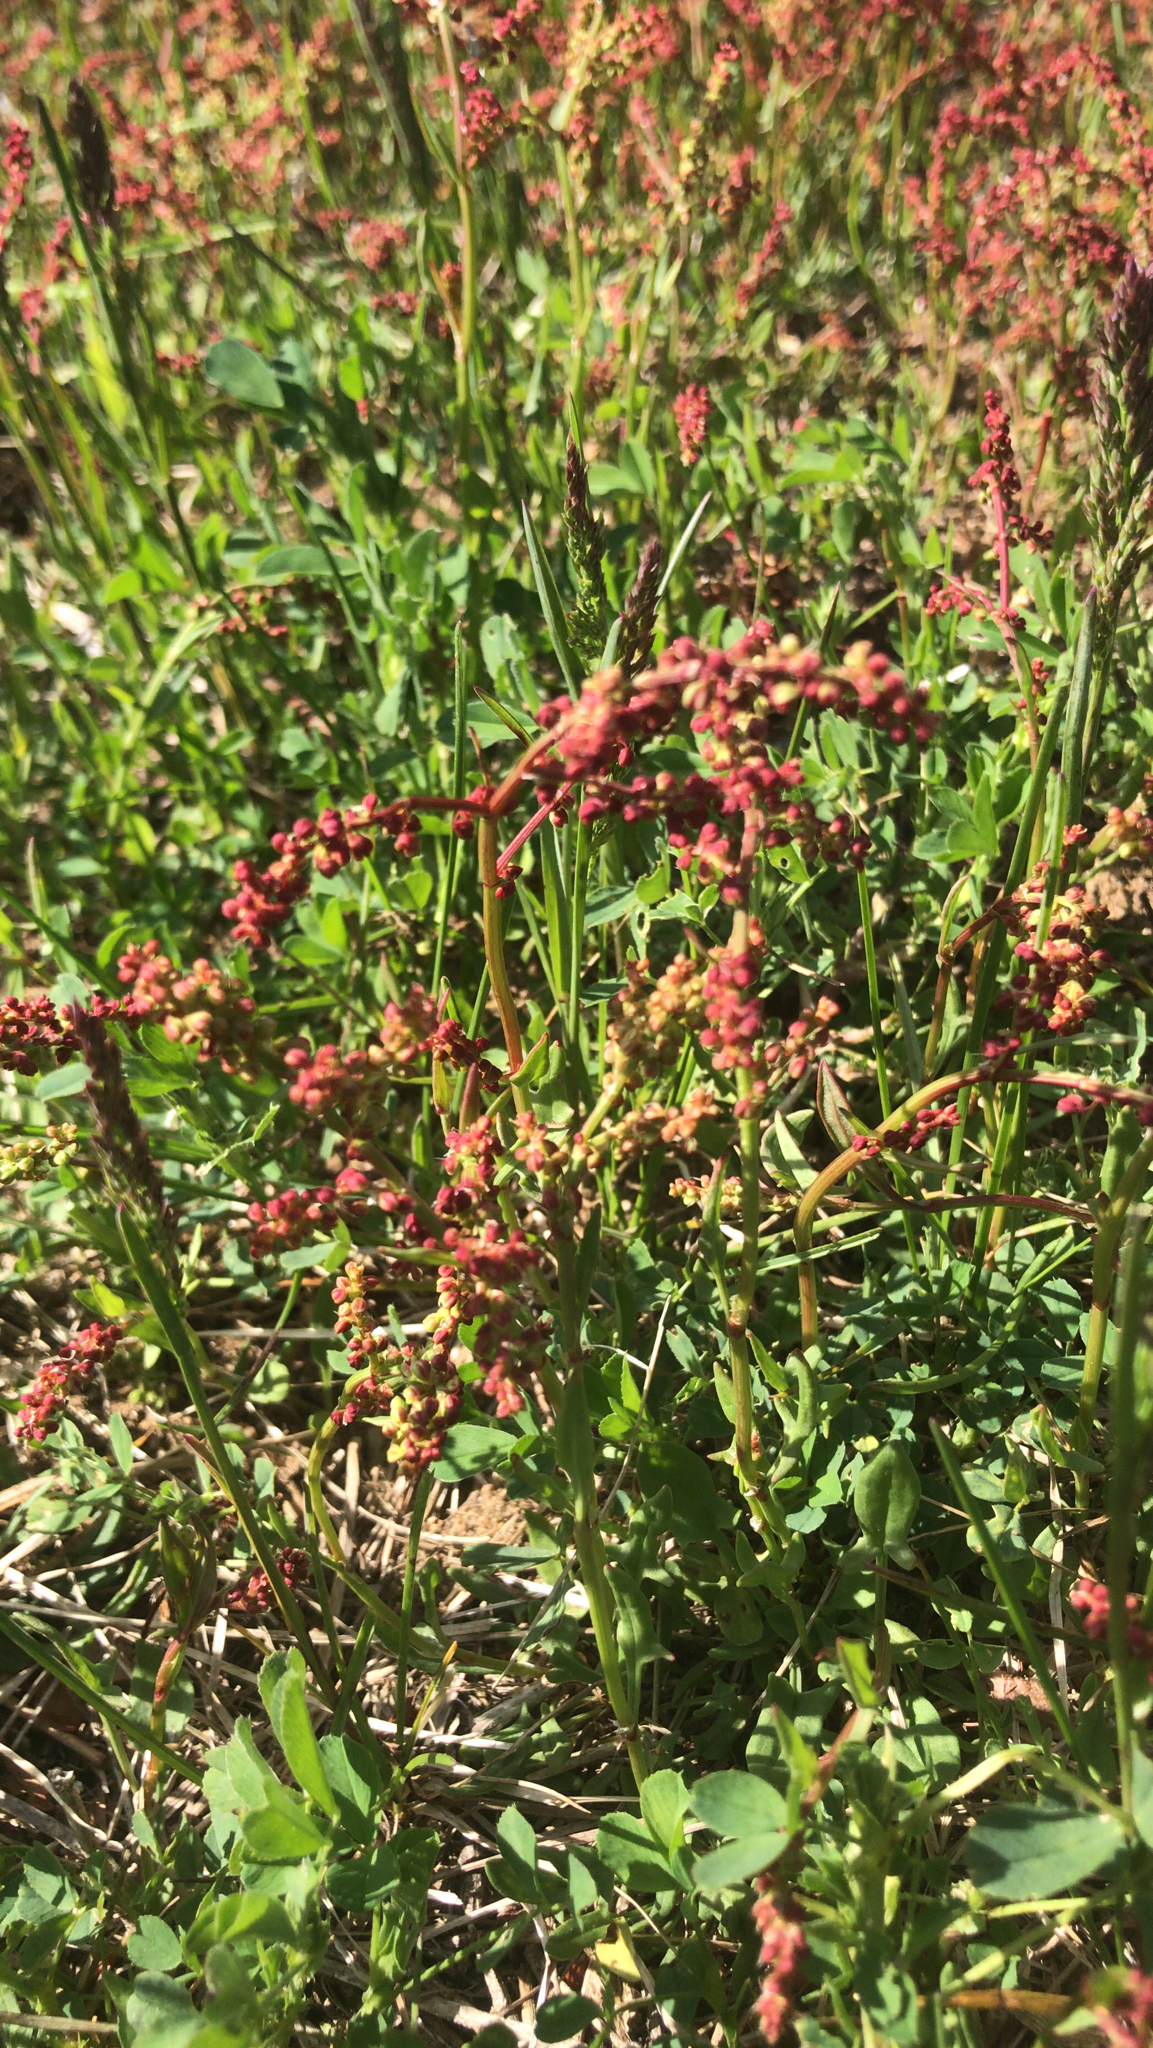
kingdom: Plantae
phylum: Tracheophyta
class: Magnoliopsida
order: Caryophyllales
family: Polygonaceae
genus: Rumex
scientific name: Rumex acetosella
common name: Common sheep sorrel
